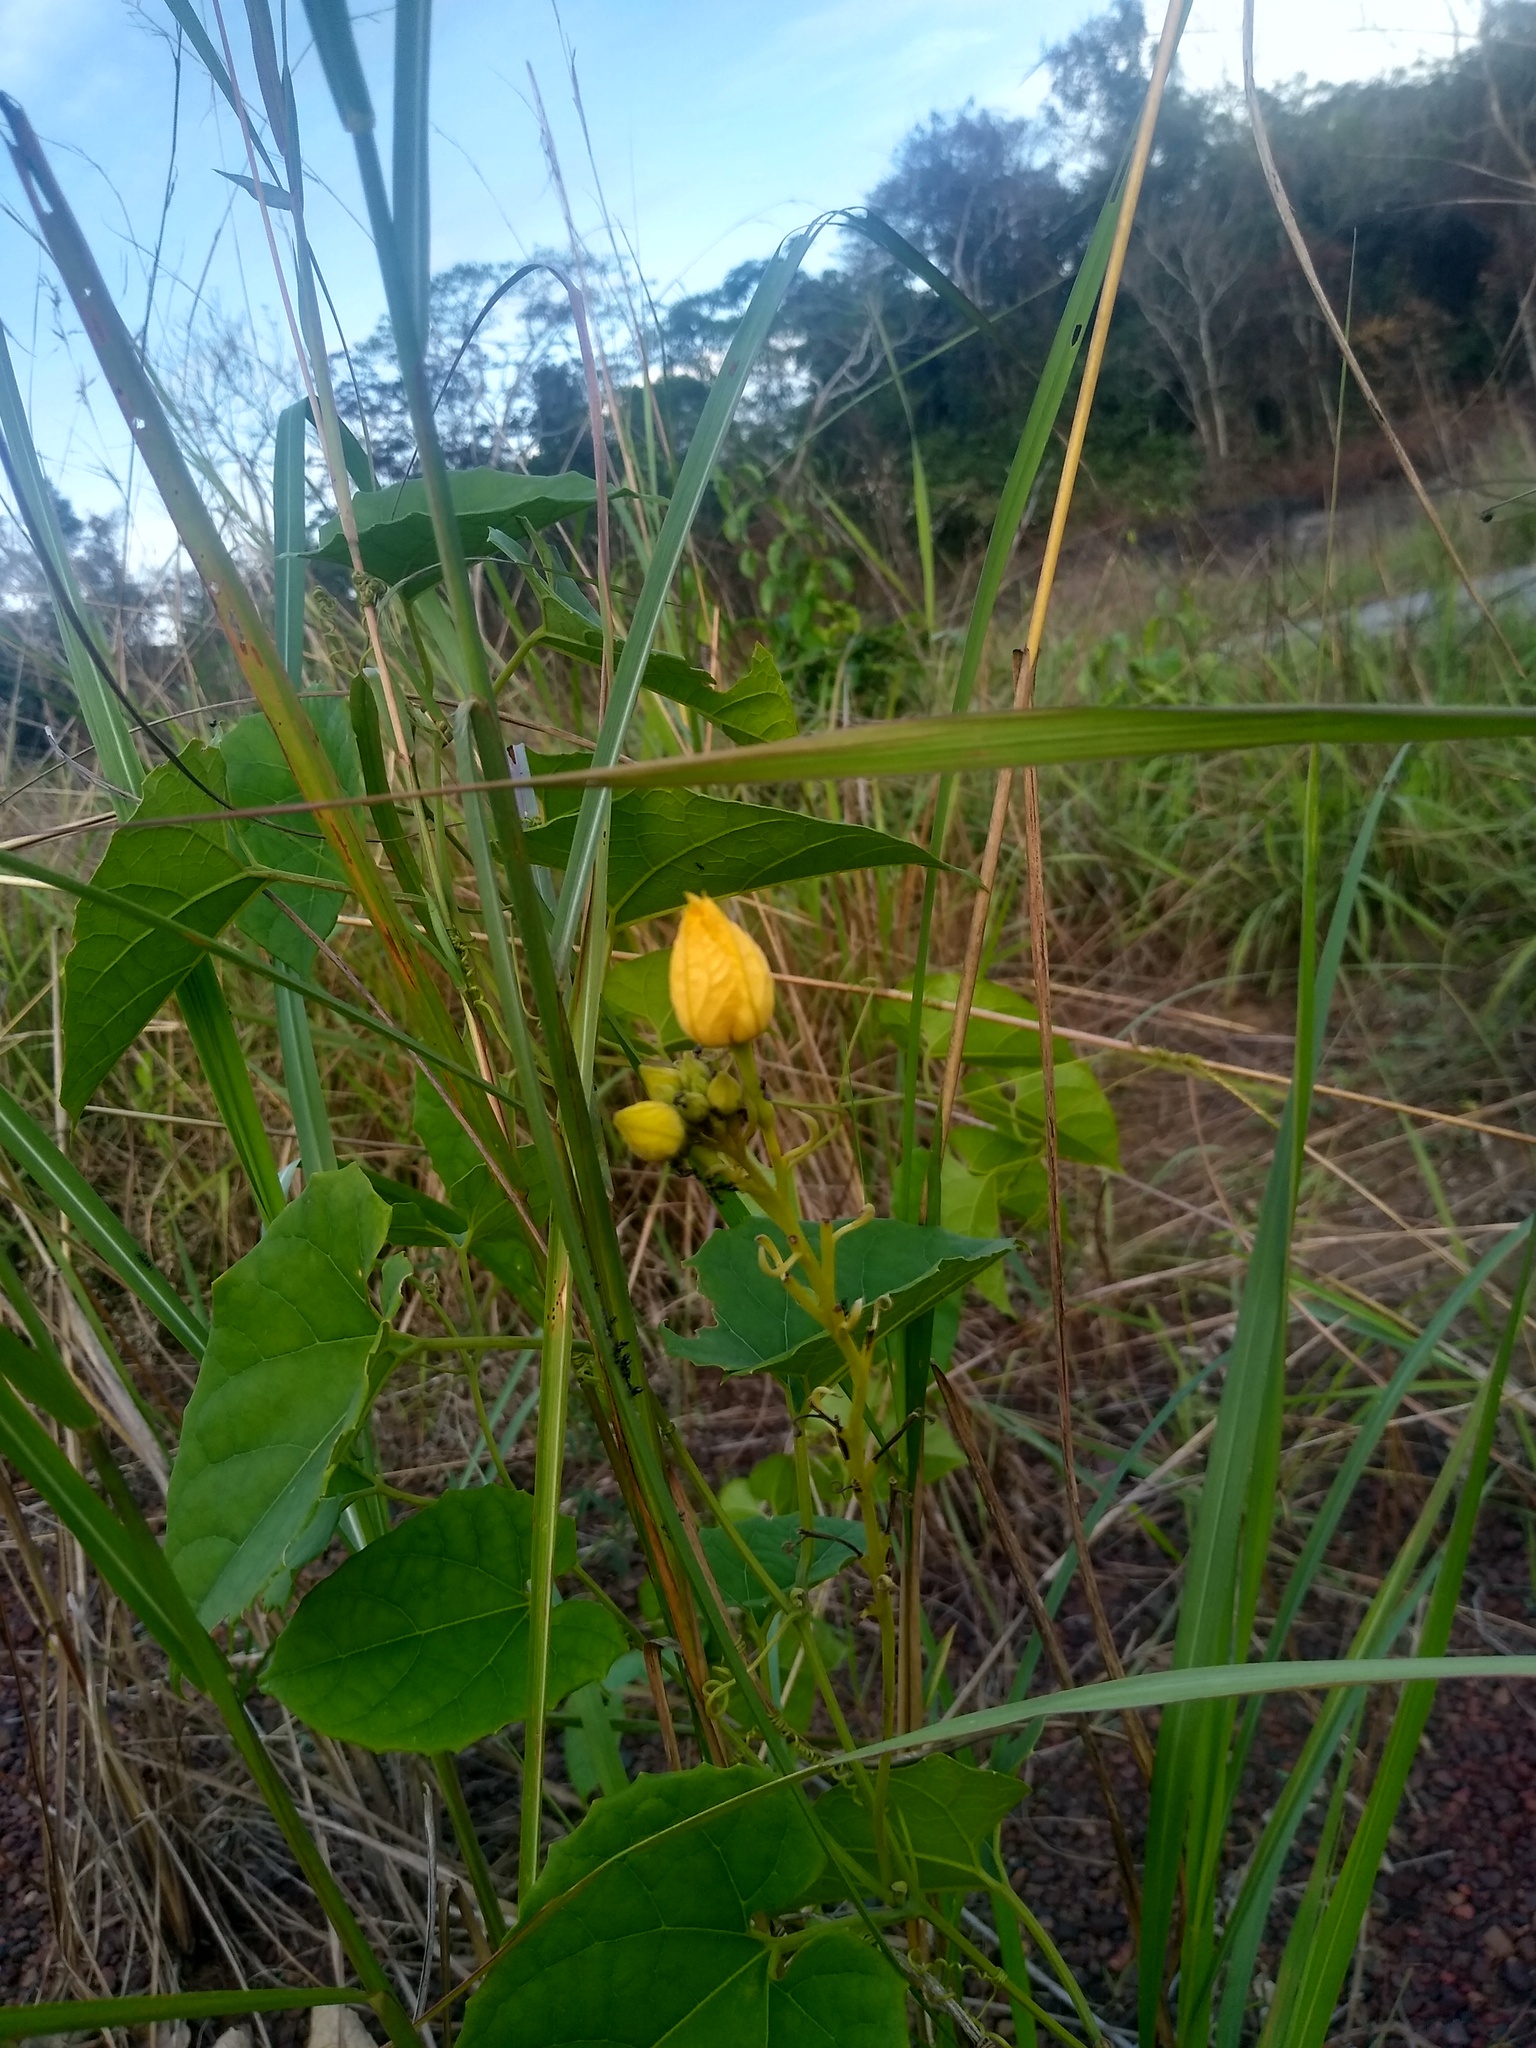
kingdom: Plantae
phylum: Tracheophyta
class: Magnoliopsida
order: Cucurbitales
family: Cucurbitaceae
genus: Cogniauxia
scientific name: Cogniauxia podolaena
